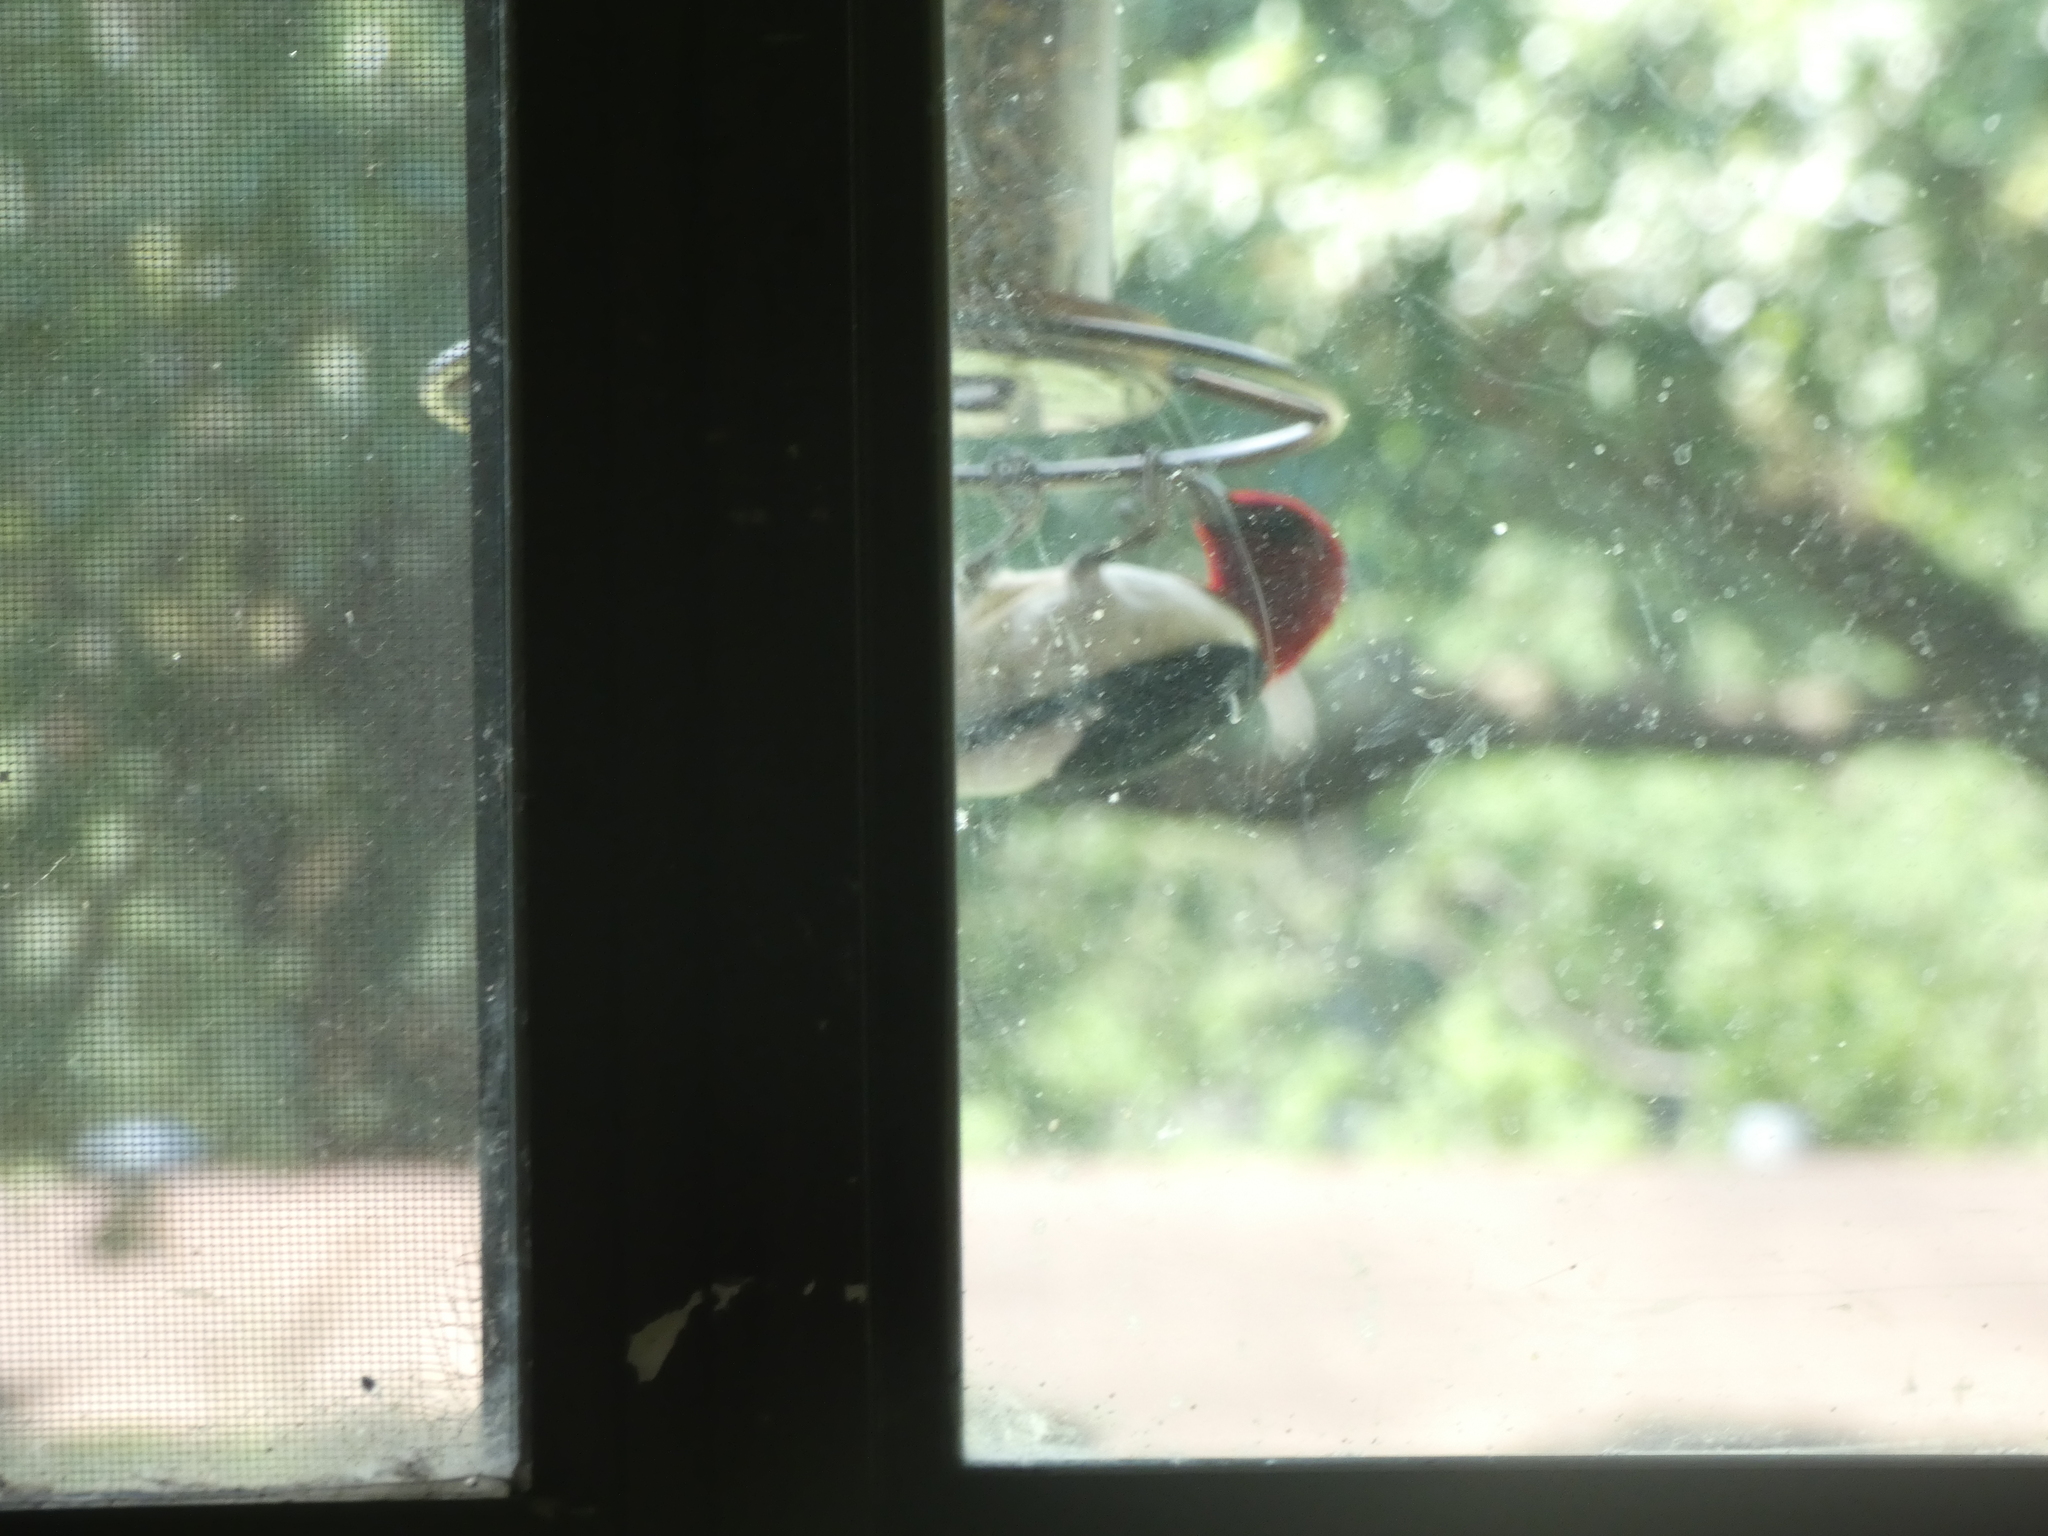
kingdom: Animalia
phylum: Chordata
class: Aves
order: Piciformes
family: Picidae
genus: Melanerpes
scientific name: Melanerpes erythrocephalus
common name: Red-headed woodpecker
